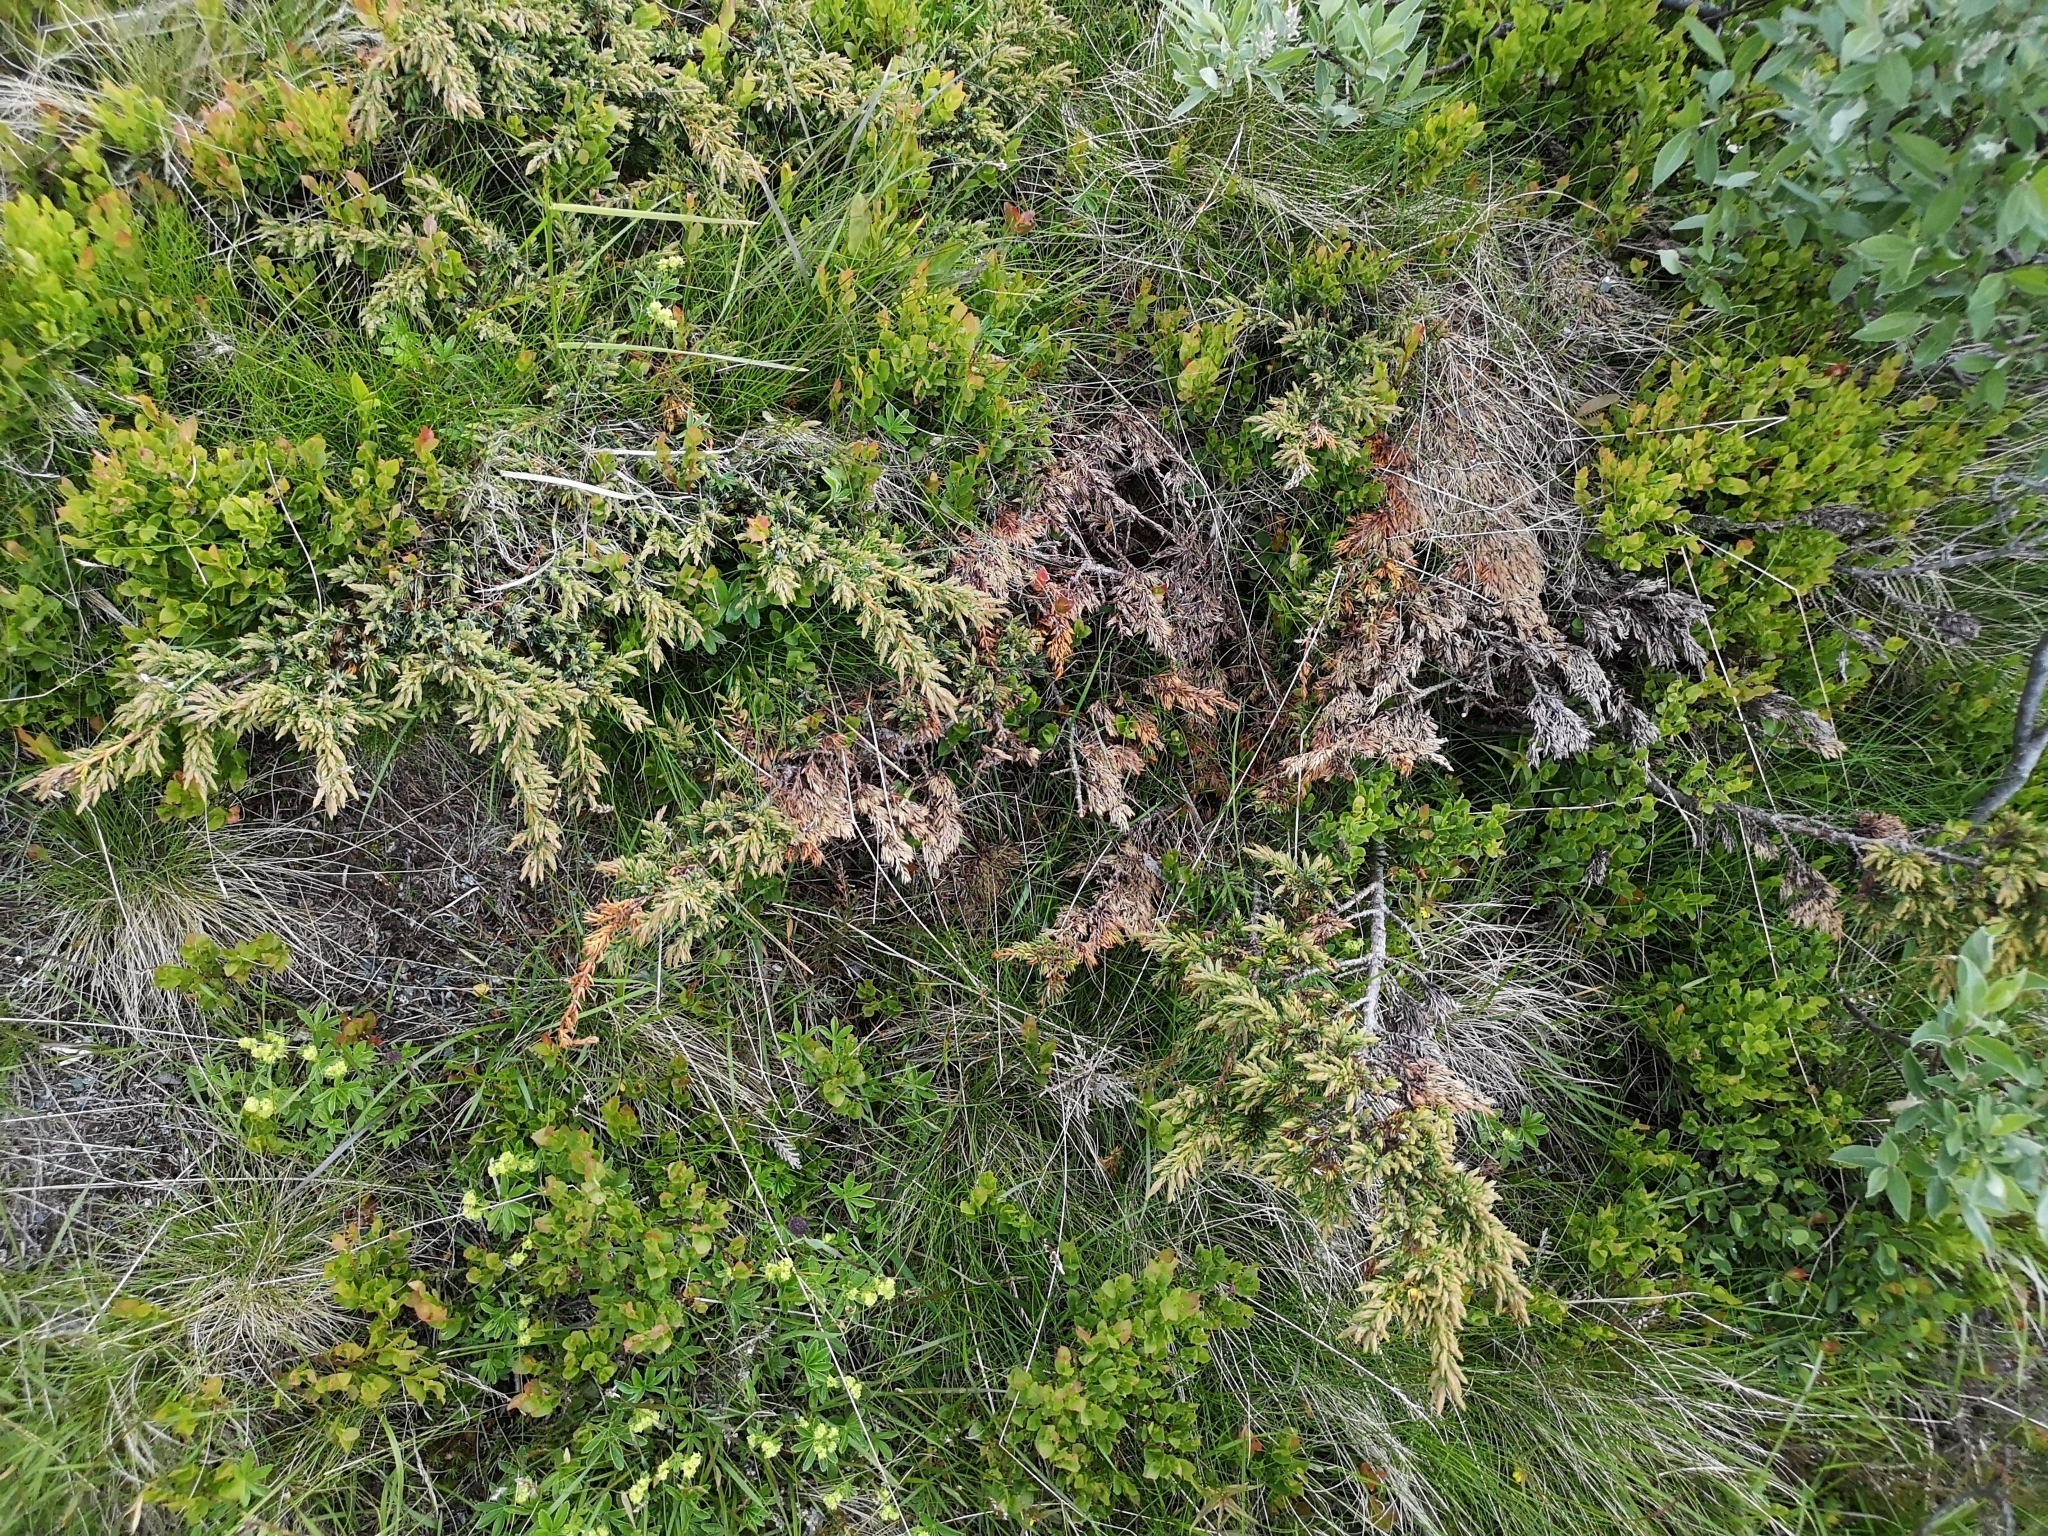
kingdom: Plantae
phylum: Tracheophyta
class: Pinopsida
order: Pinales
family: Cupressaceae
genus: Juniperus
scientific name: Juniperus communis
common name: Common juniper
